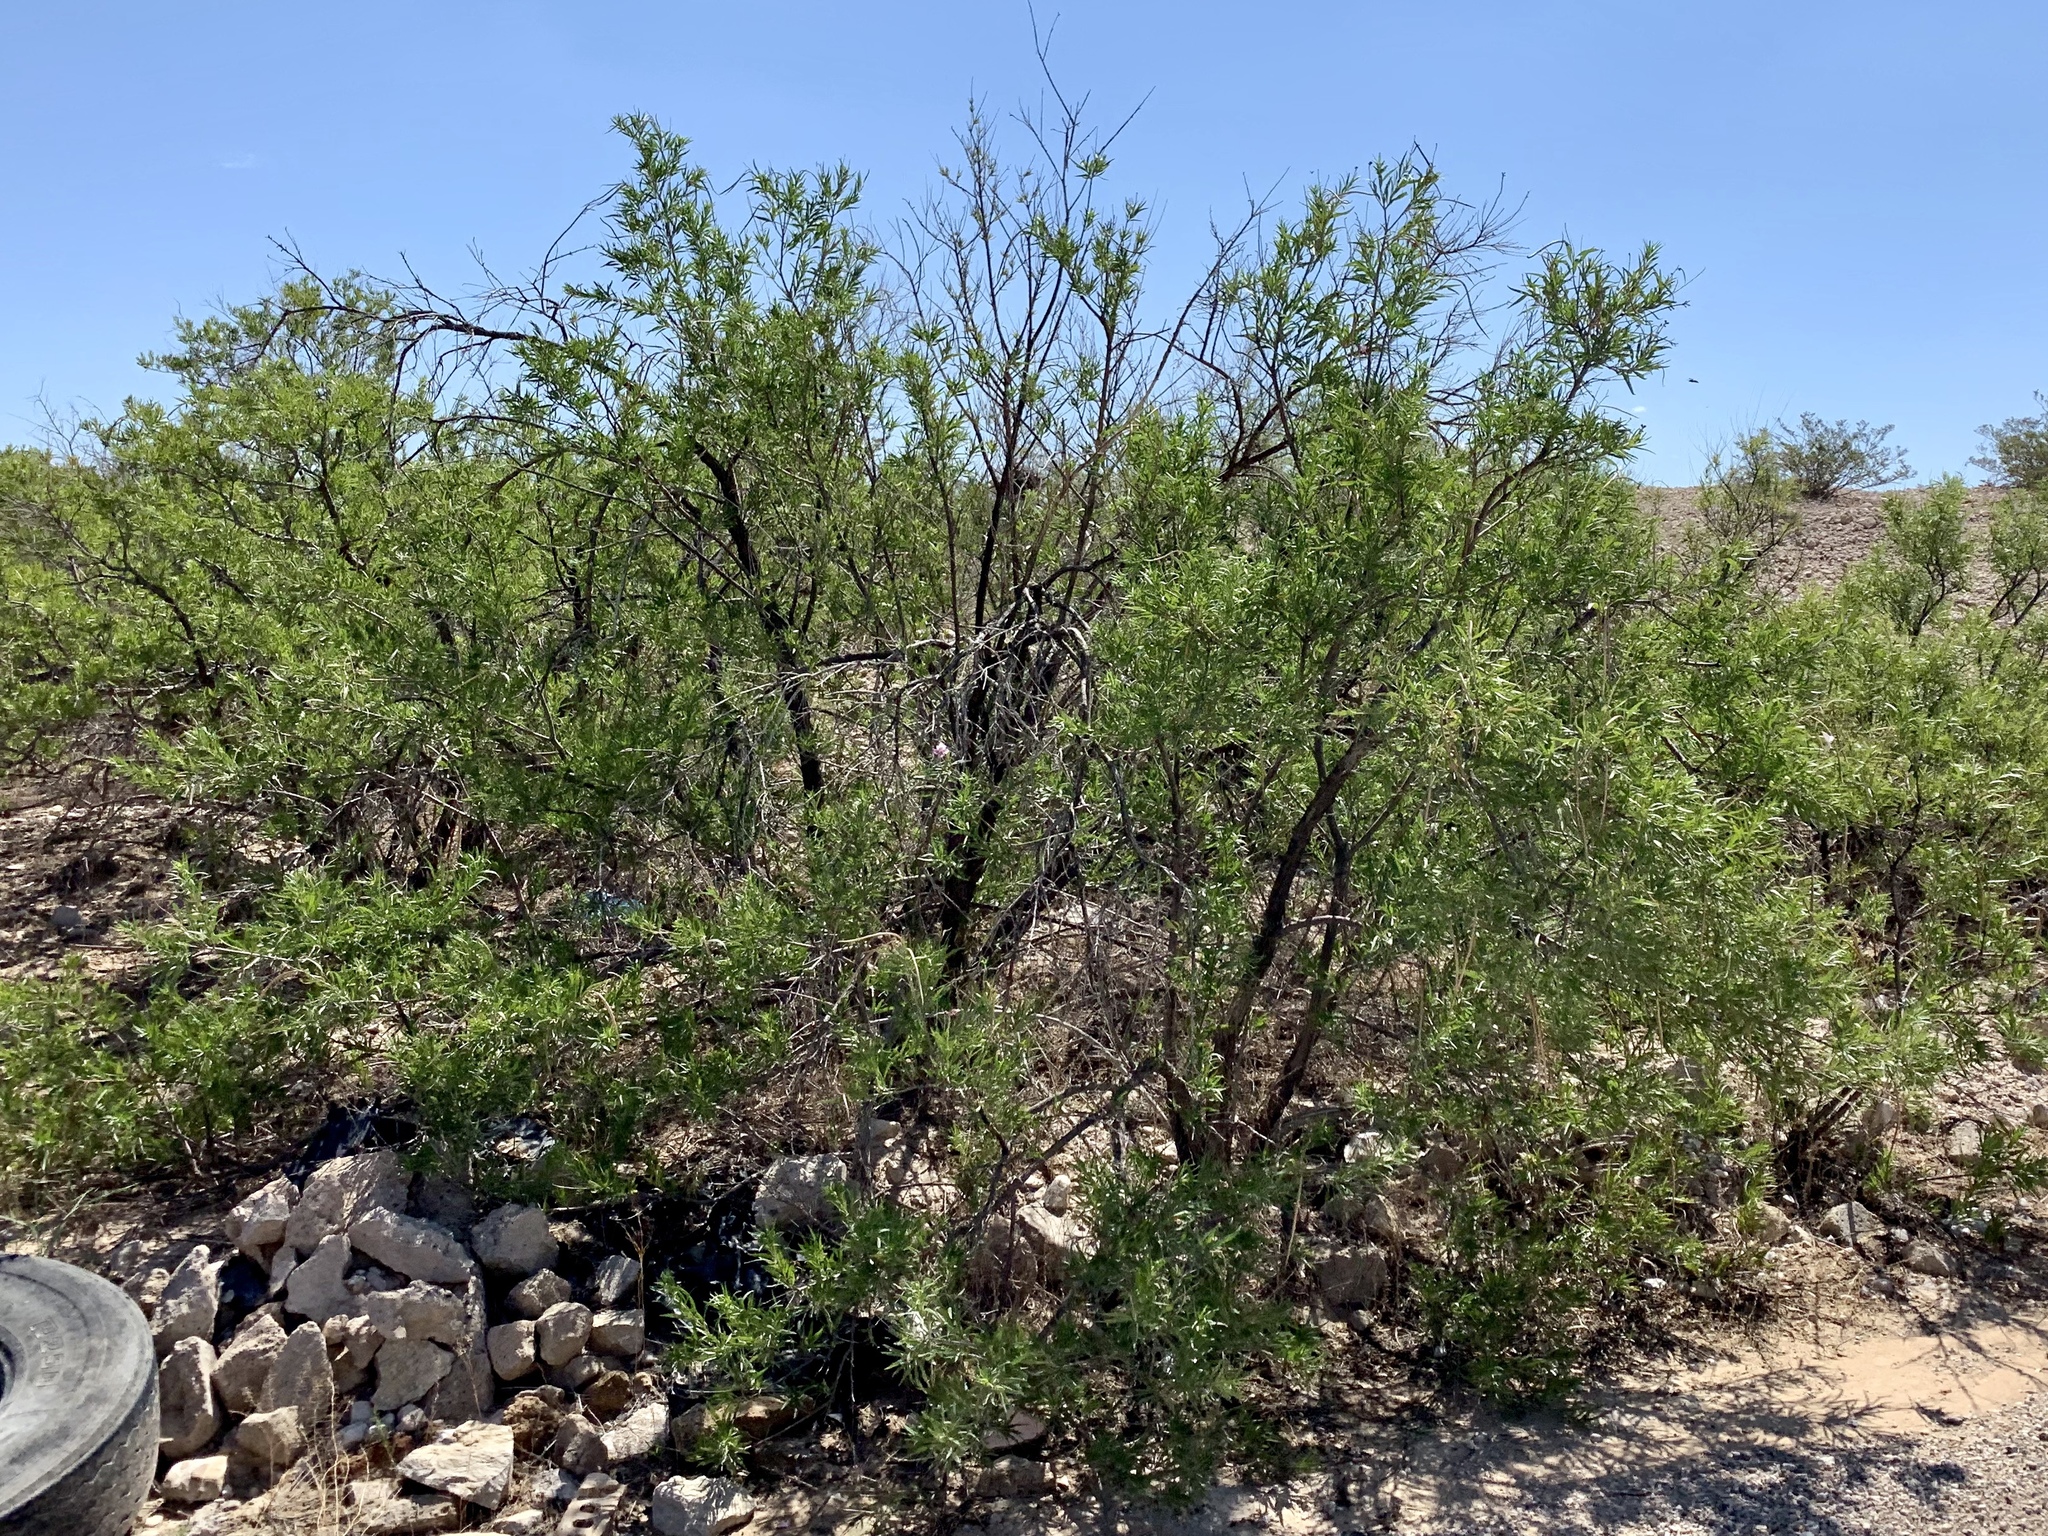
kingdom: Plantae
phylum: Tracheophyta
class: Magnoliopsida
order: Lamiales
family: Bignoniaceae
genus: Chilopsis
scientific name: Chilopsis linearis
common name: Desert-willow
